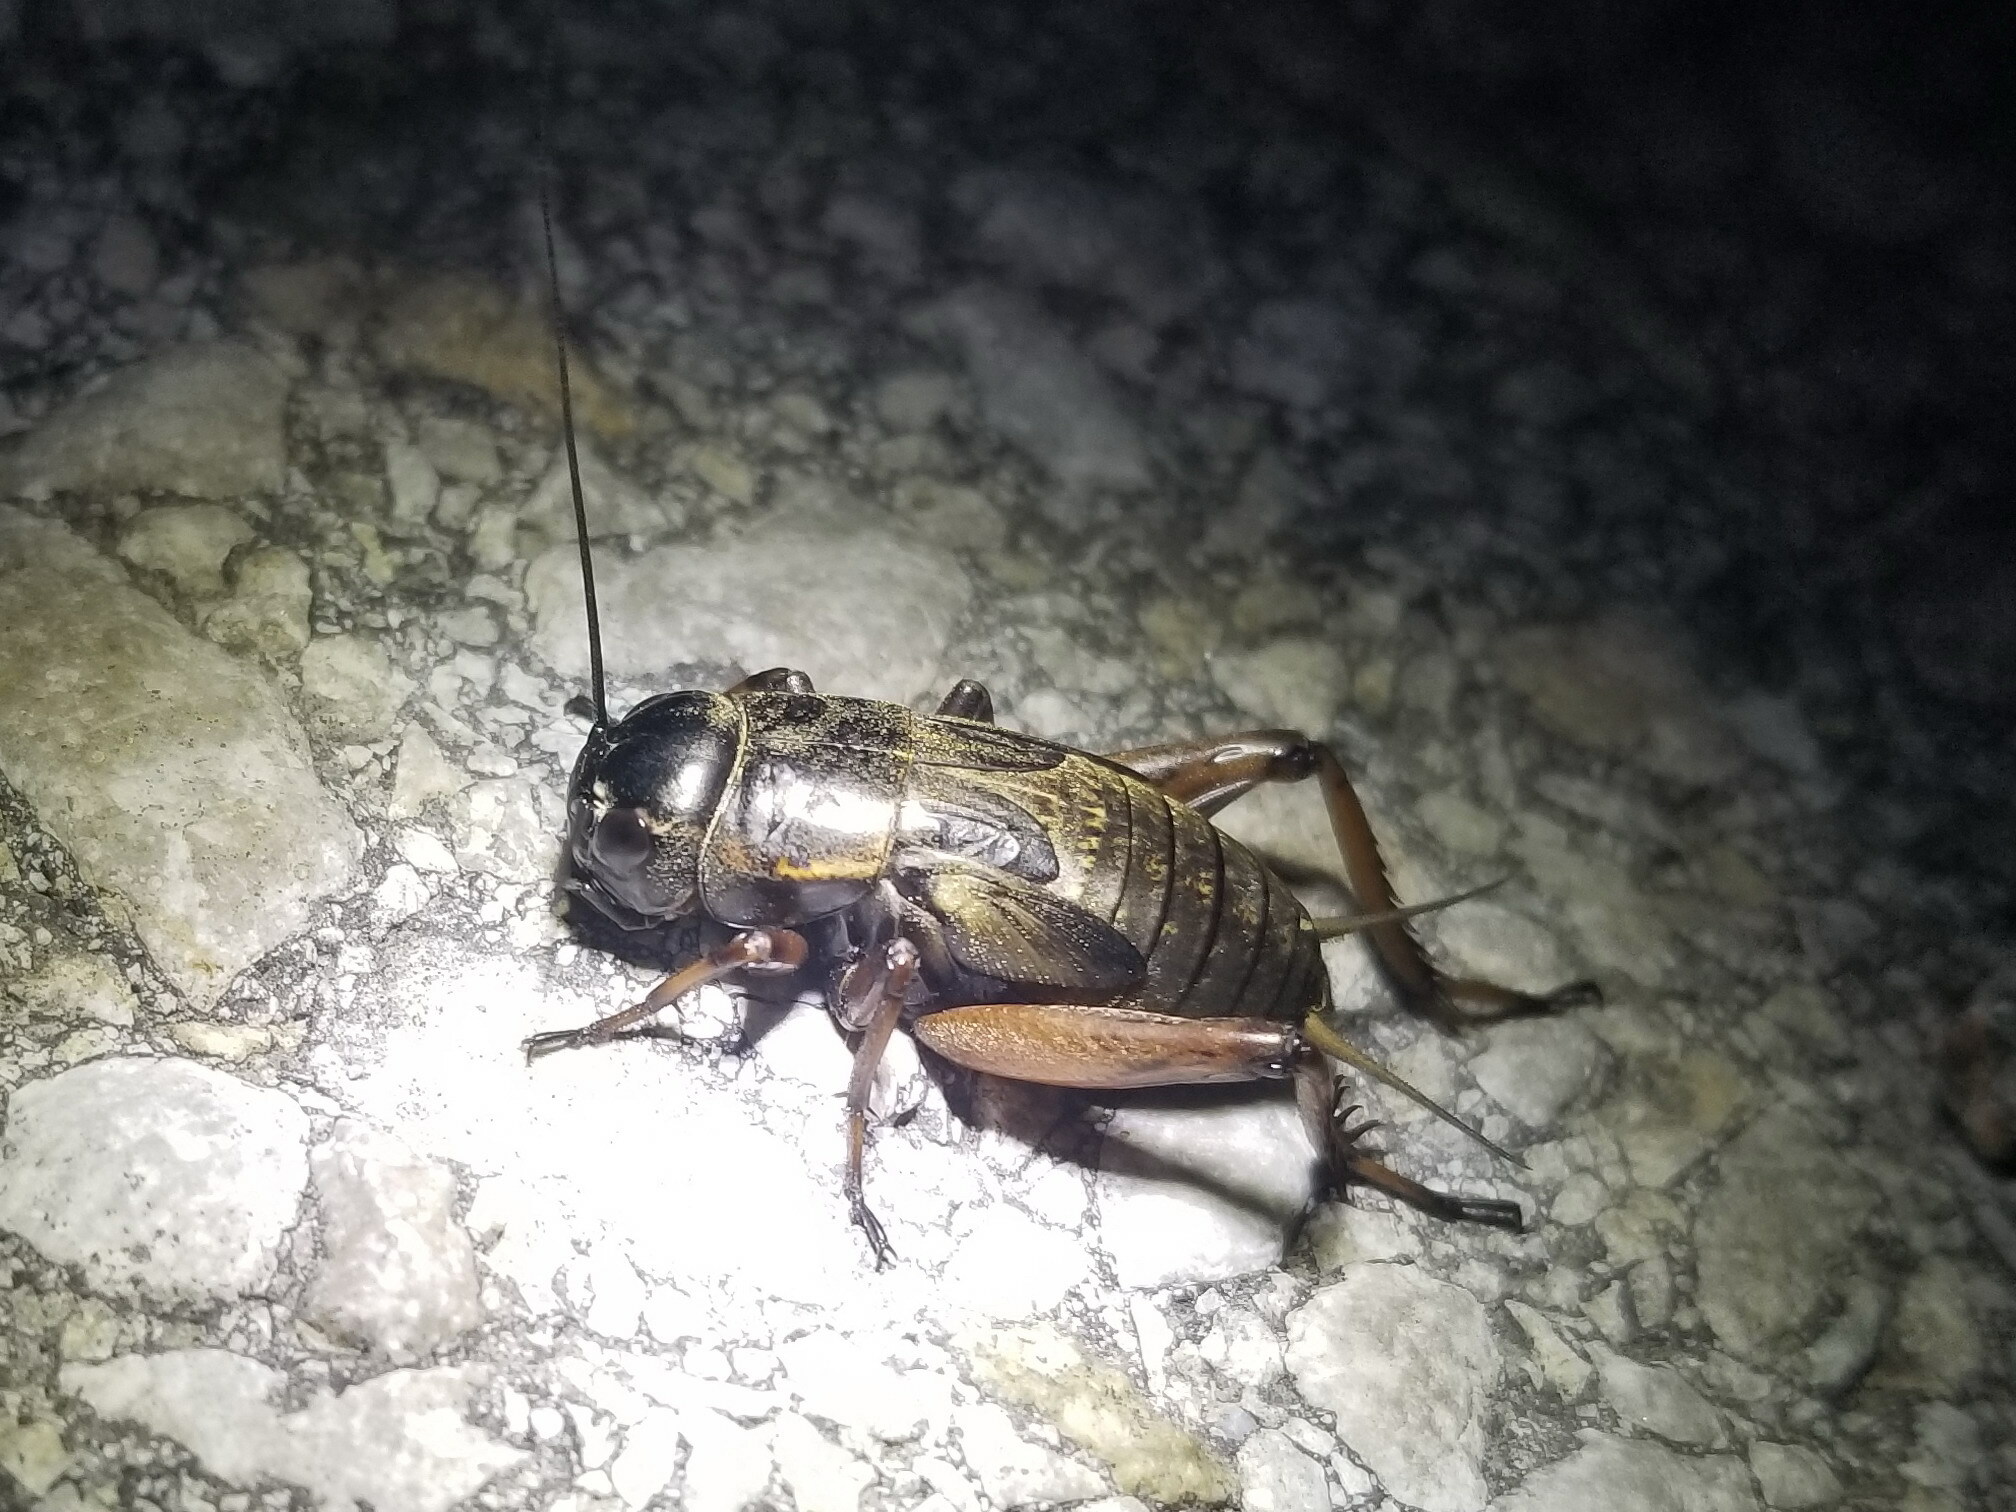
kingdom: Animalia
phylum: Arthropoda
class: Insecta
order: Orthoptera
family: Gryllidae
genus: Gryllus
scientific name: Gryllus campestris
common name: Field cricket
